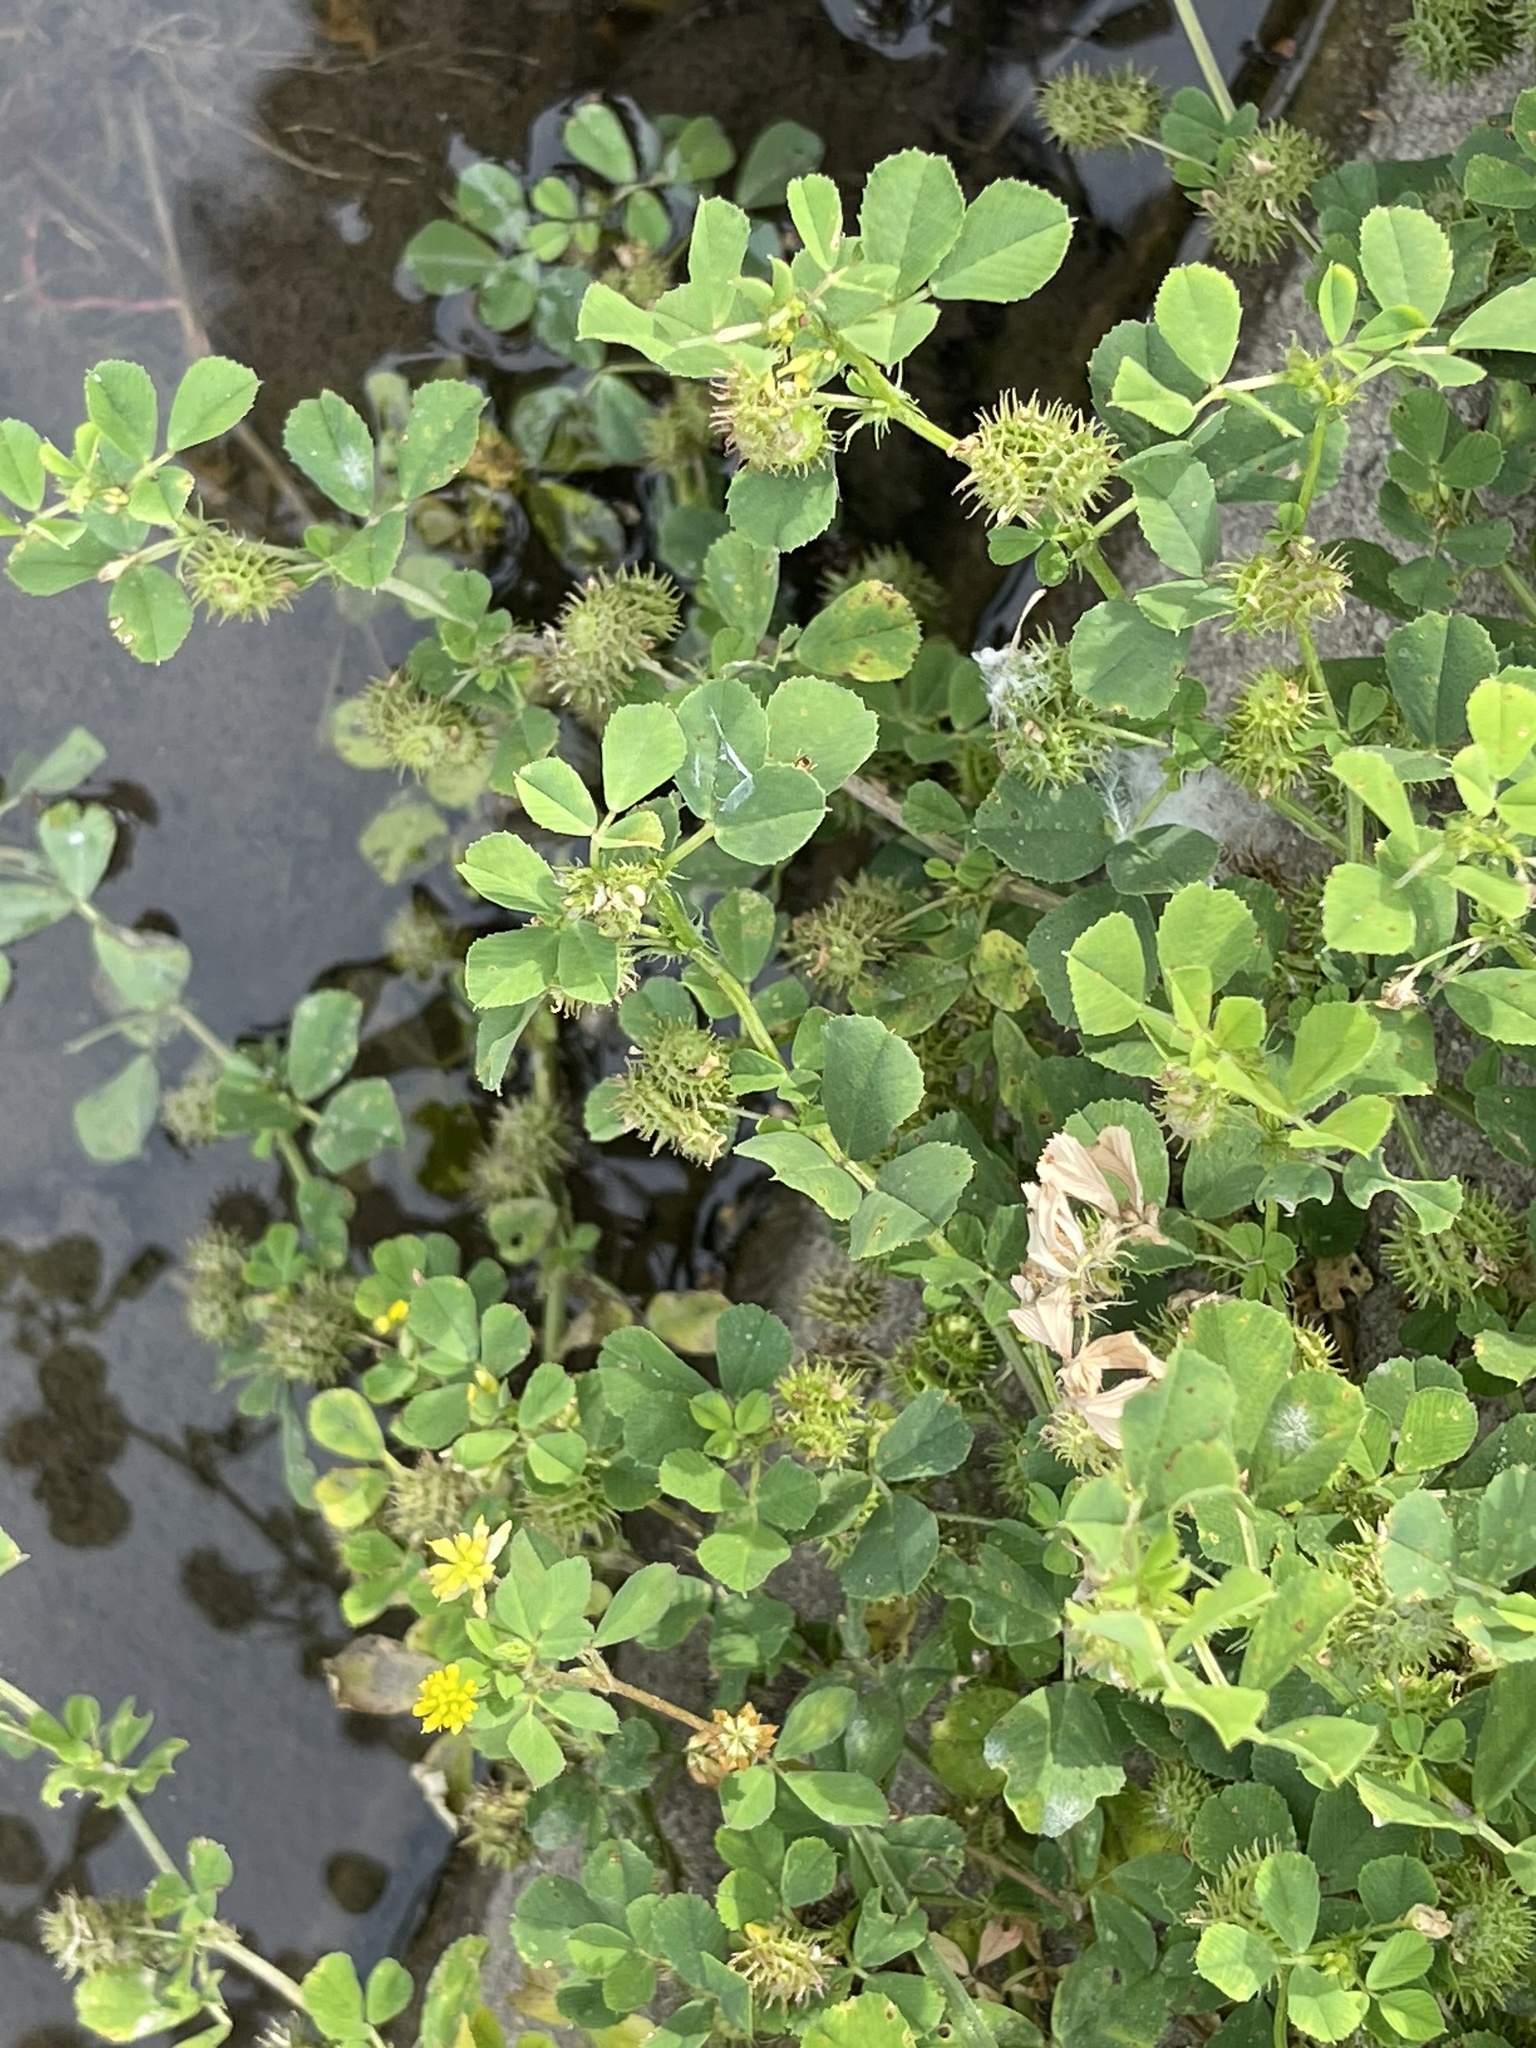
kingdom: Plantae
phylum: Tracheophyta
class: Magnoliopsida
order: Fabales
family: Fabaceae
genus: Medicago
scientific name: Medicago polymorpha
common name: Burclover
